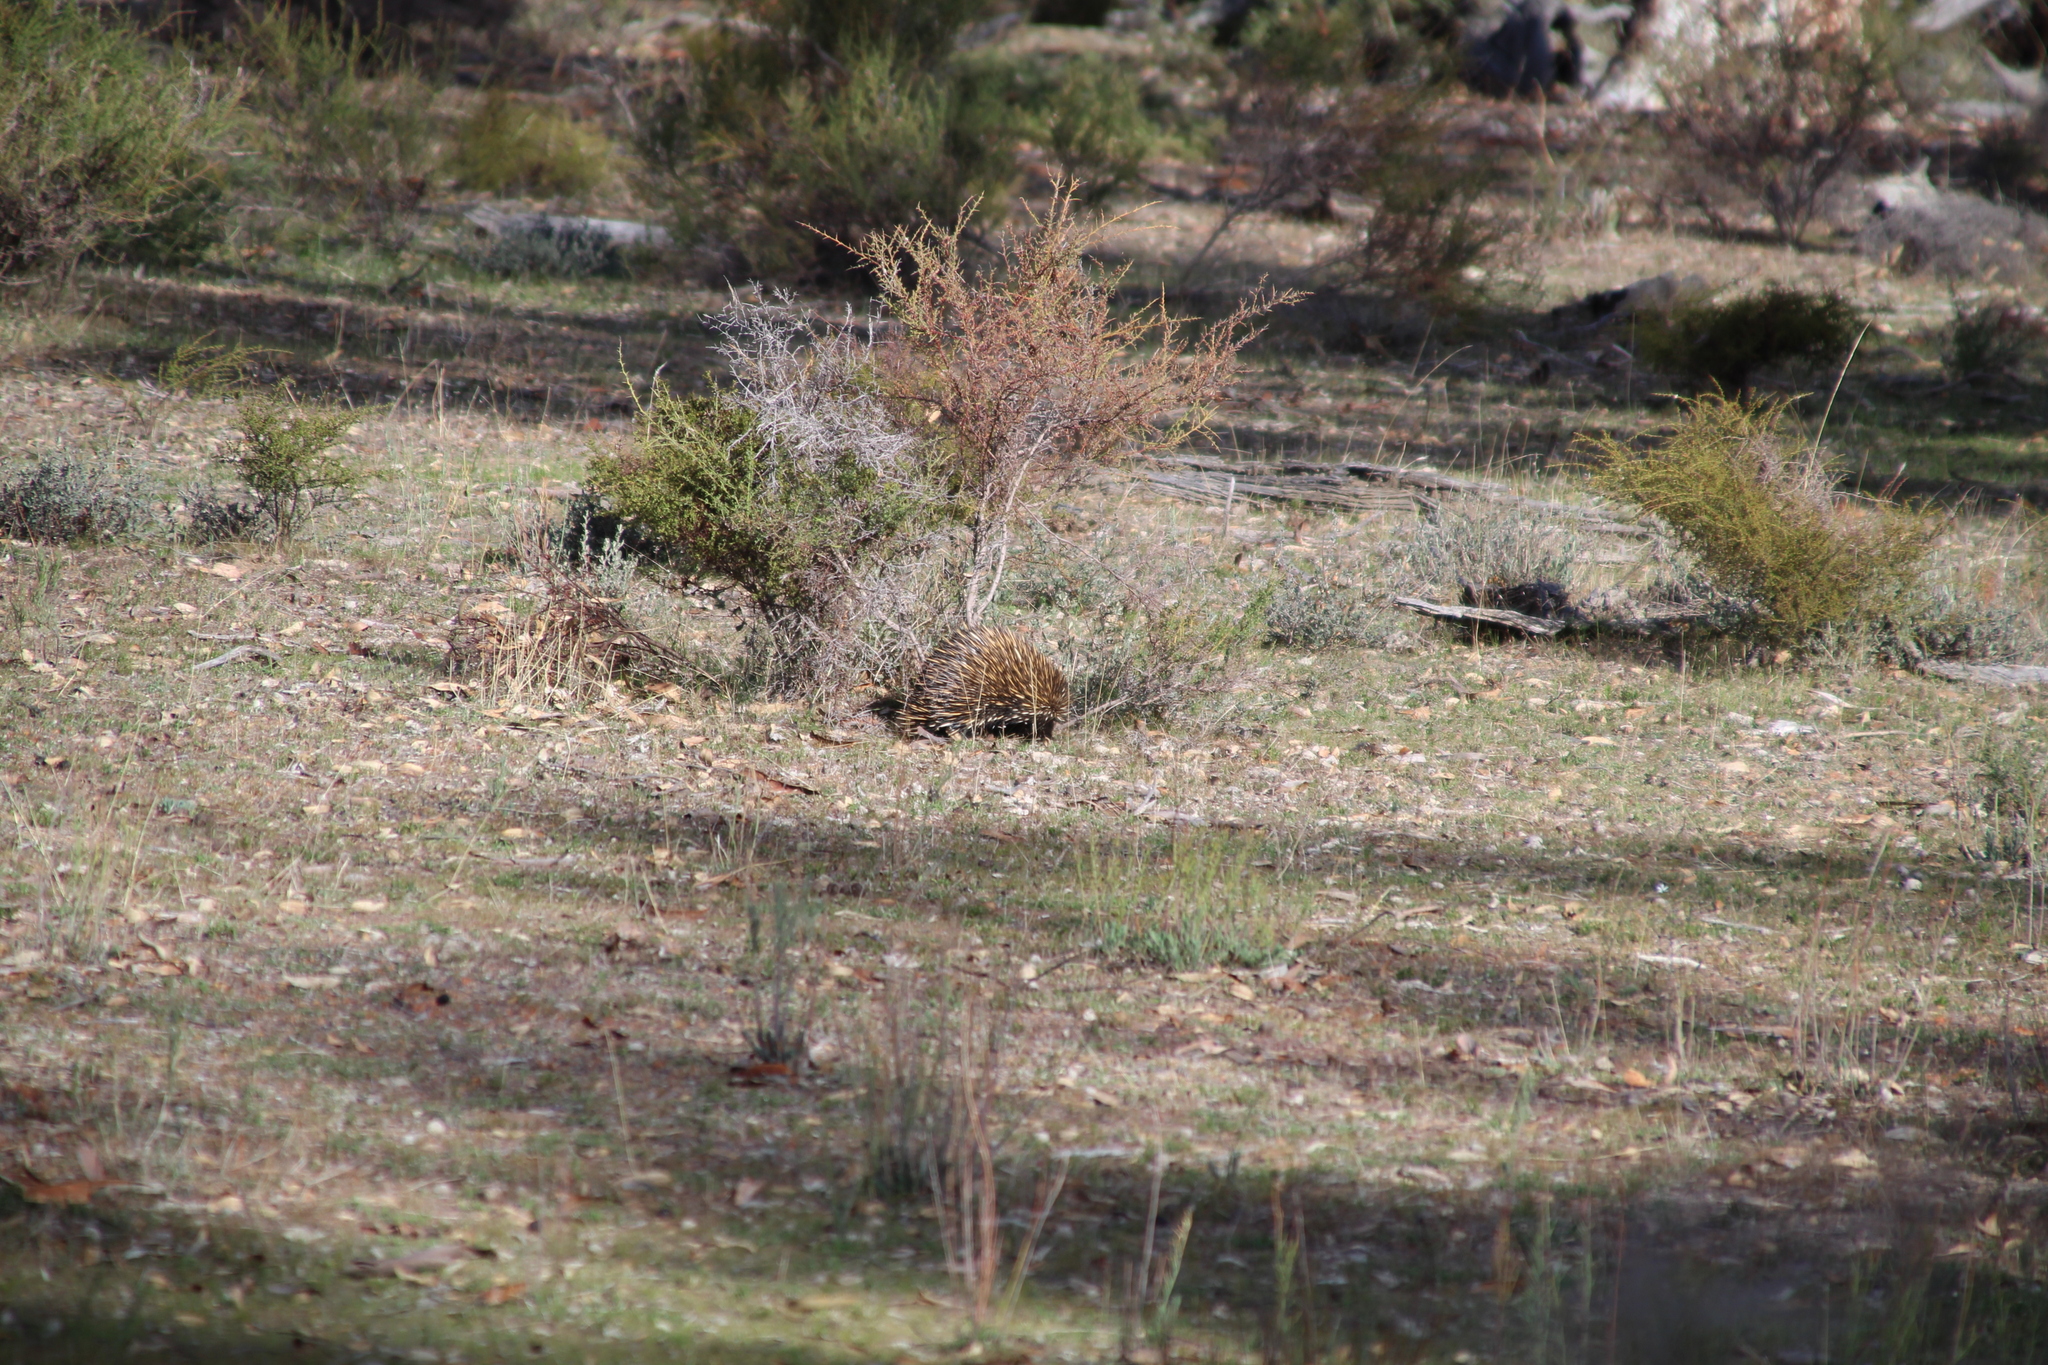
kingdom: Animalia
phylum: Chordata
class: Mammalia
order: Monotremata
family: Tachyglossidae
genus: Tachyglossus
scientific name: Tachyglossus aculeatus
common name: Short-beaked echidna
